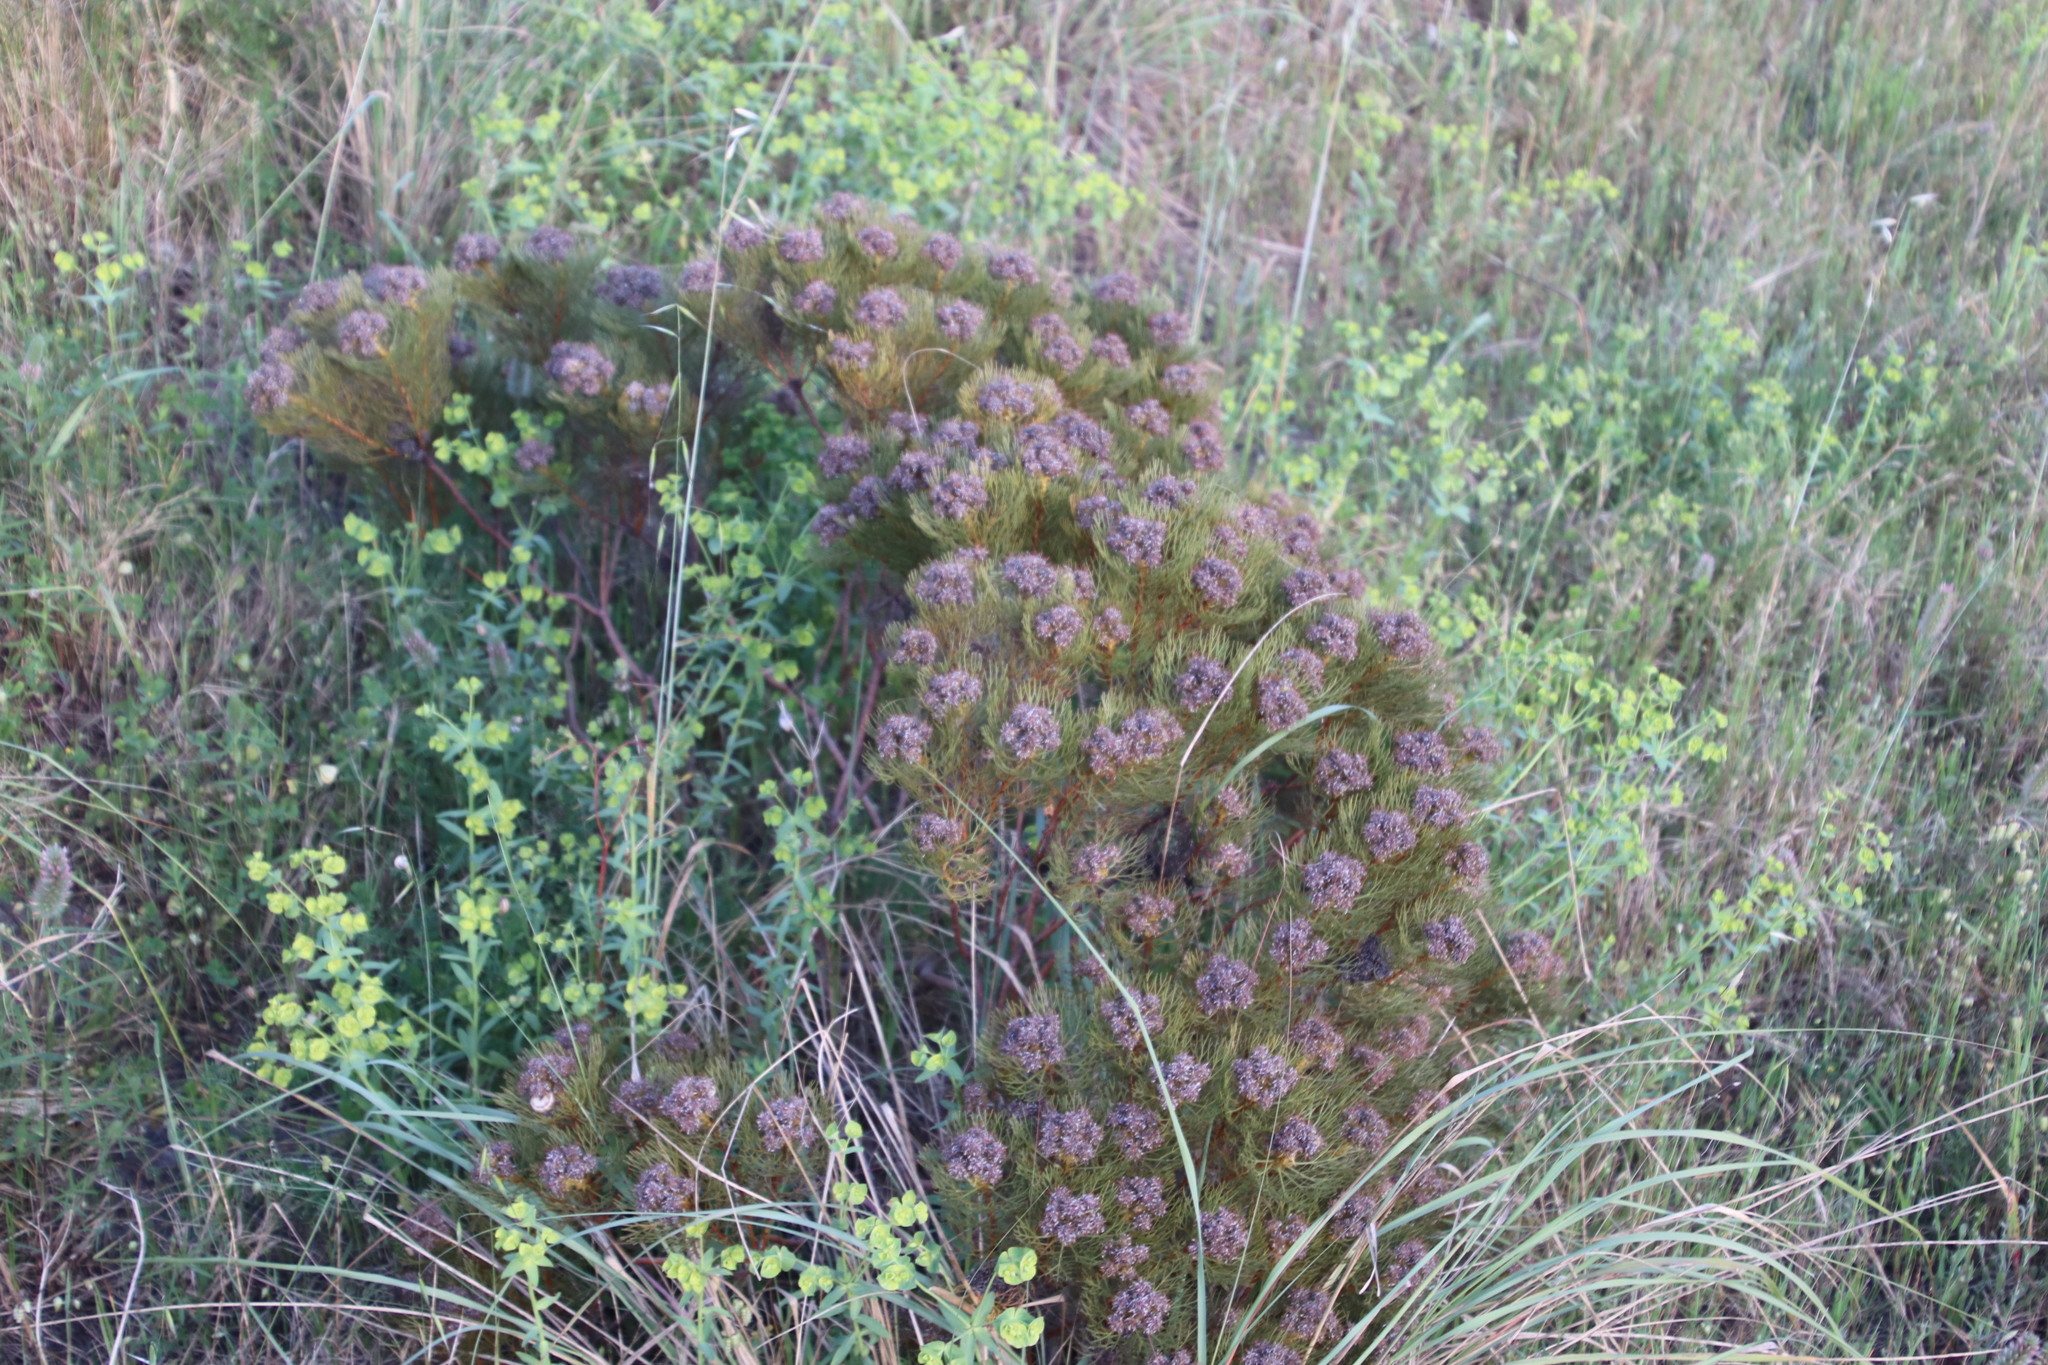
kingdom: Plantae
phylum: Tracheophyta
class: Magnoliopsida
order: Proteales
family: Proteaceae
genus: Serruria
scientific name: Serruria glomerata
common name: Cluster spiderhead
